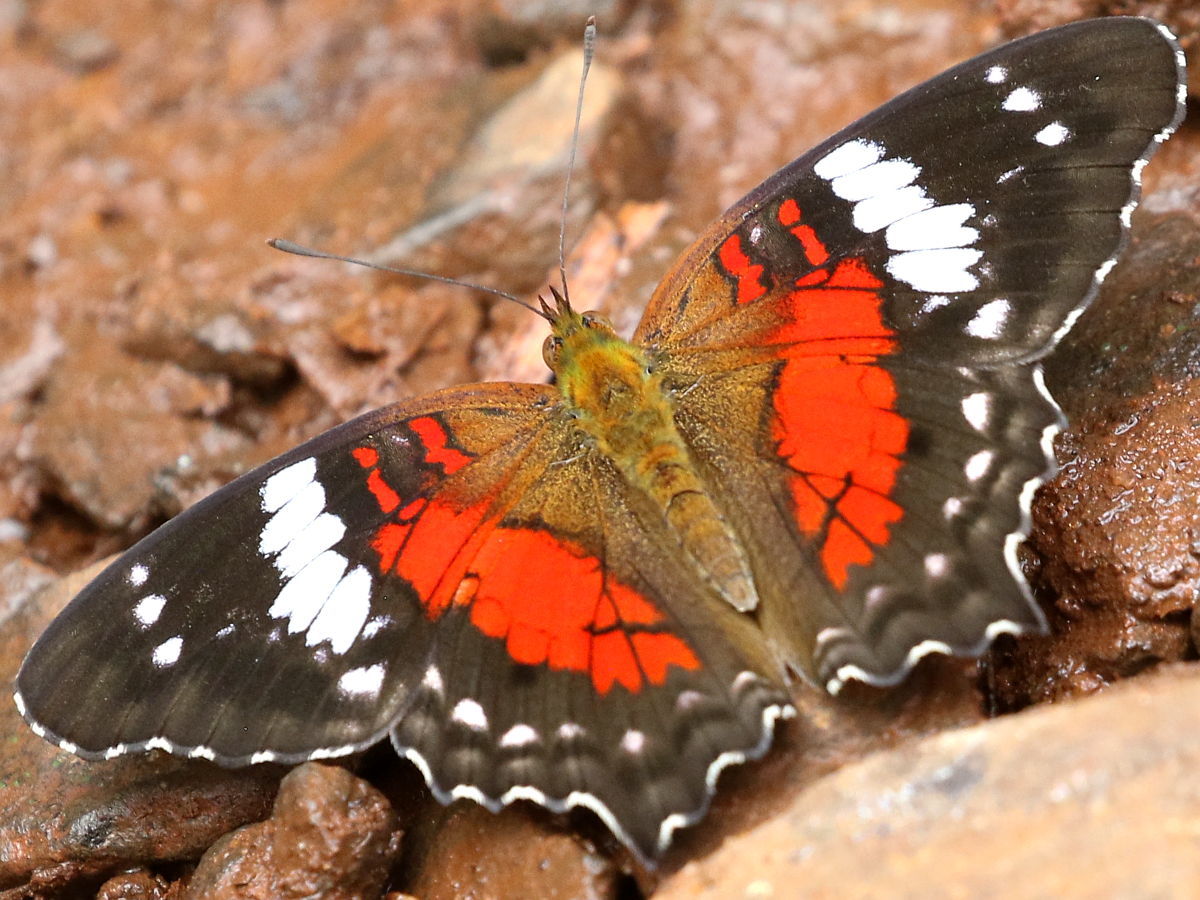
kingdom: Animalia
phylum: Arthropoda
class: Insecta
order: Lepidoptera
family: Nymphalidae
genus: Anartia
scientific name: Anartia amathea
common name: Red peacock
